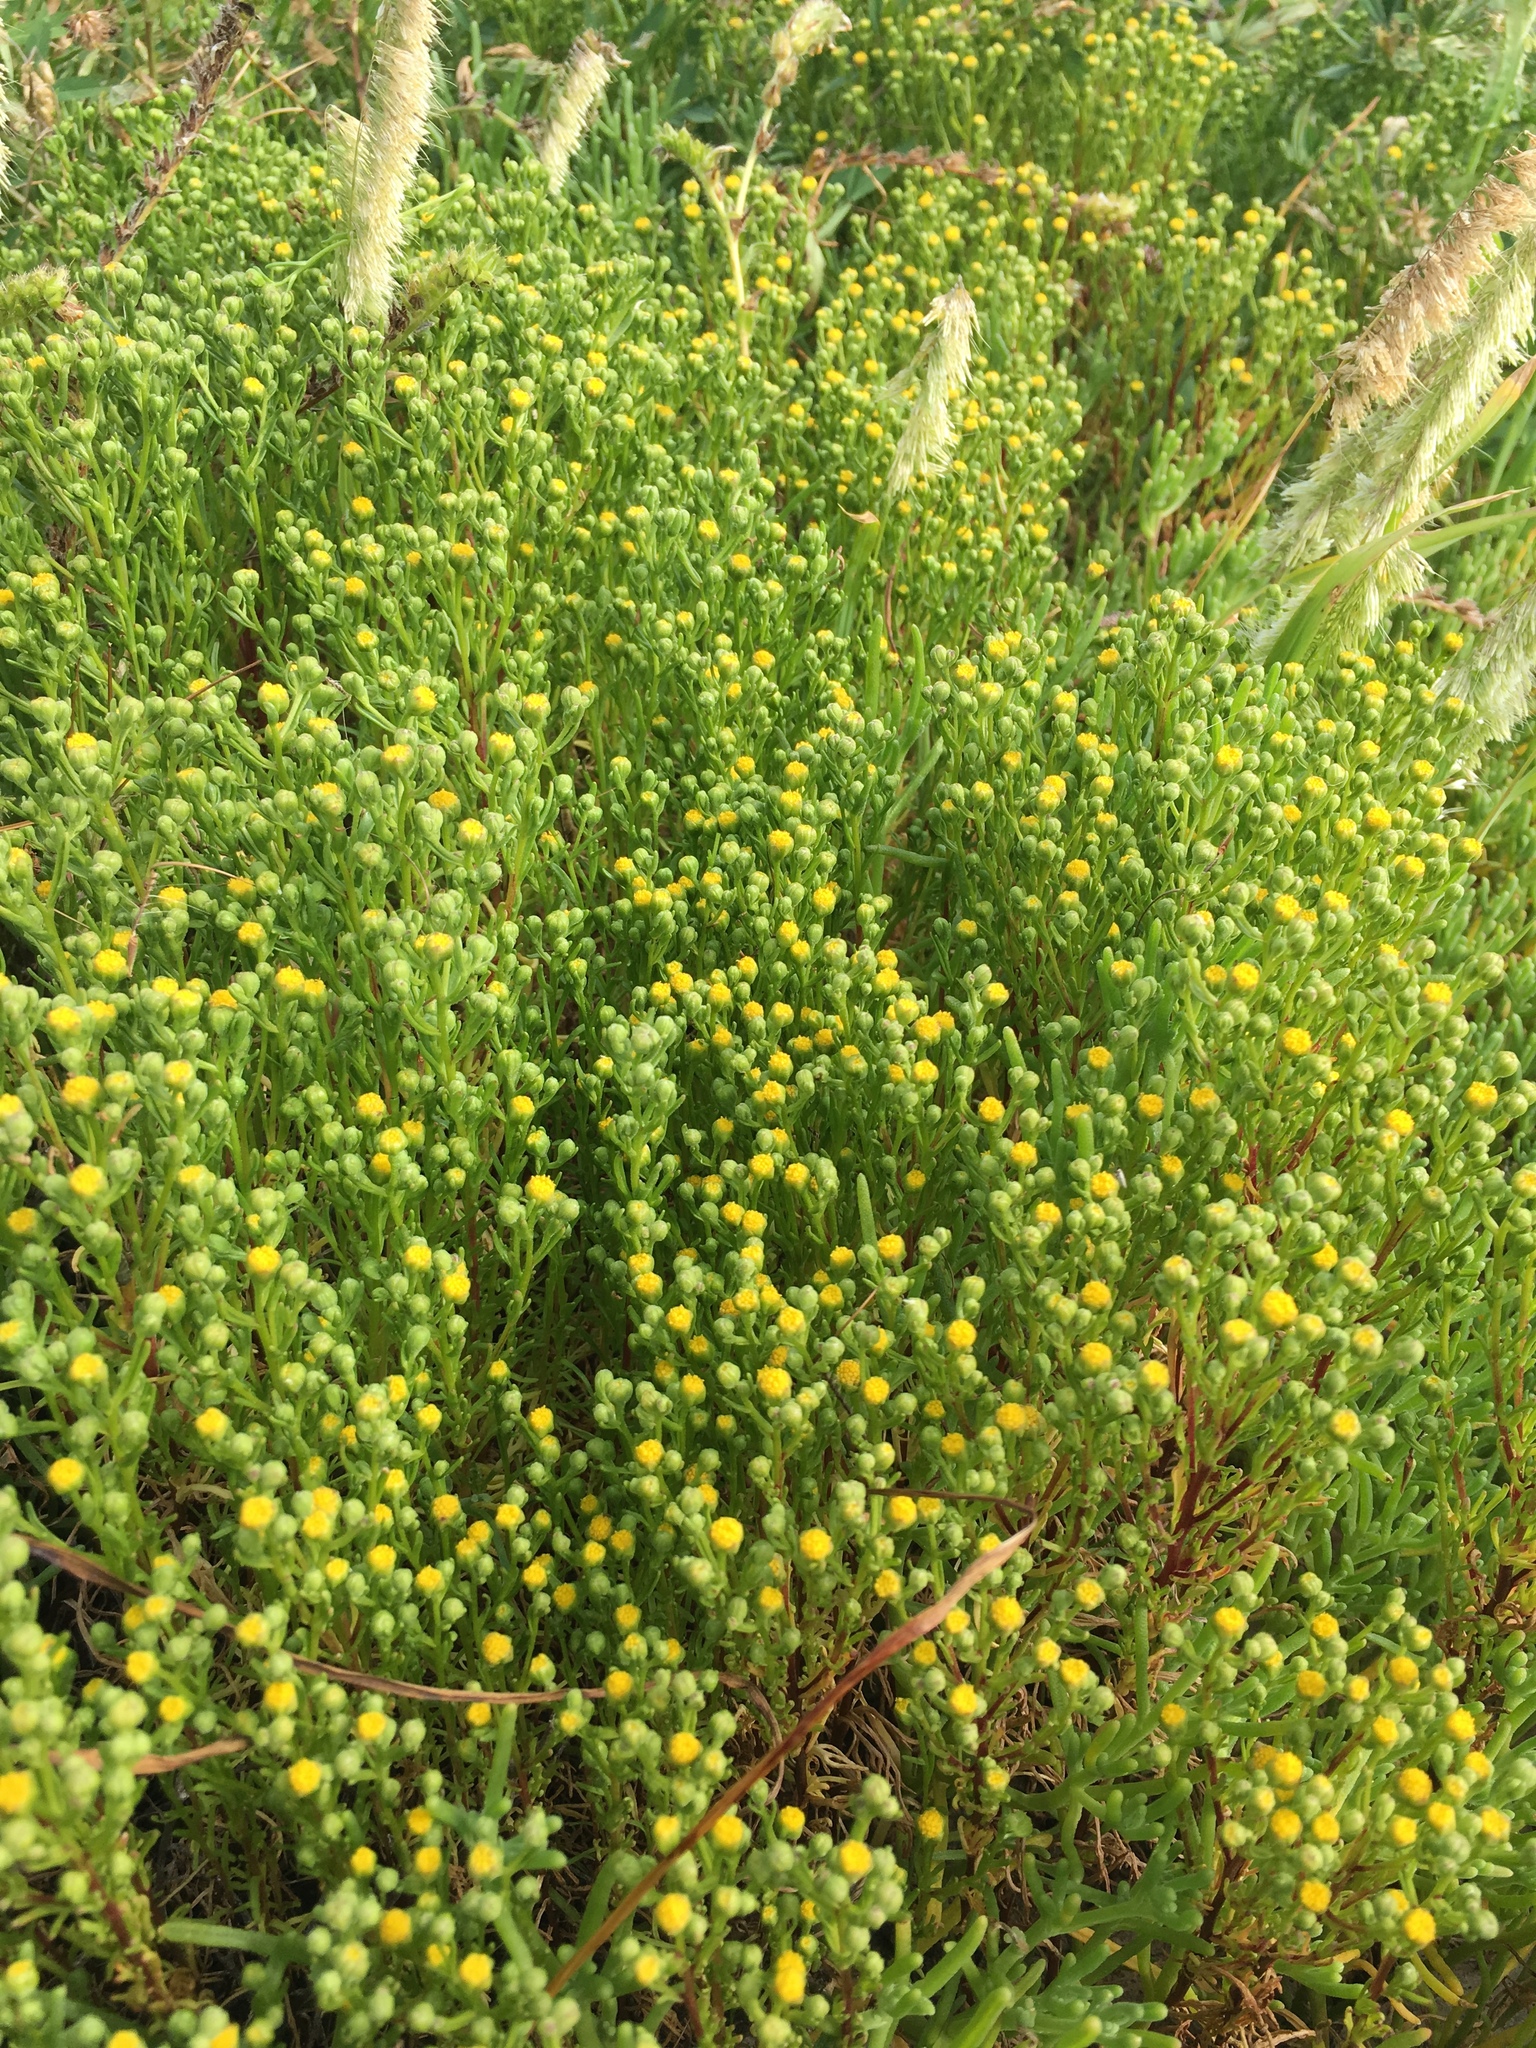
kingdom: Plantae
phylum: Tracheophyta
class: Magnoliopsida
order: Asterales
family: Asteraceae
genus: Amblyopappus
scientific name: Amblyopappus pusillus
